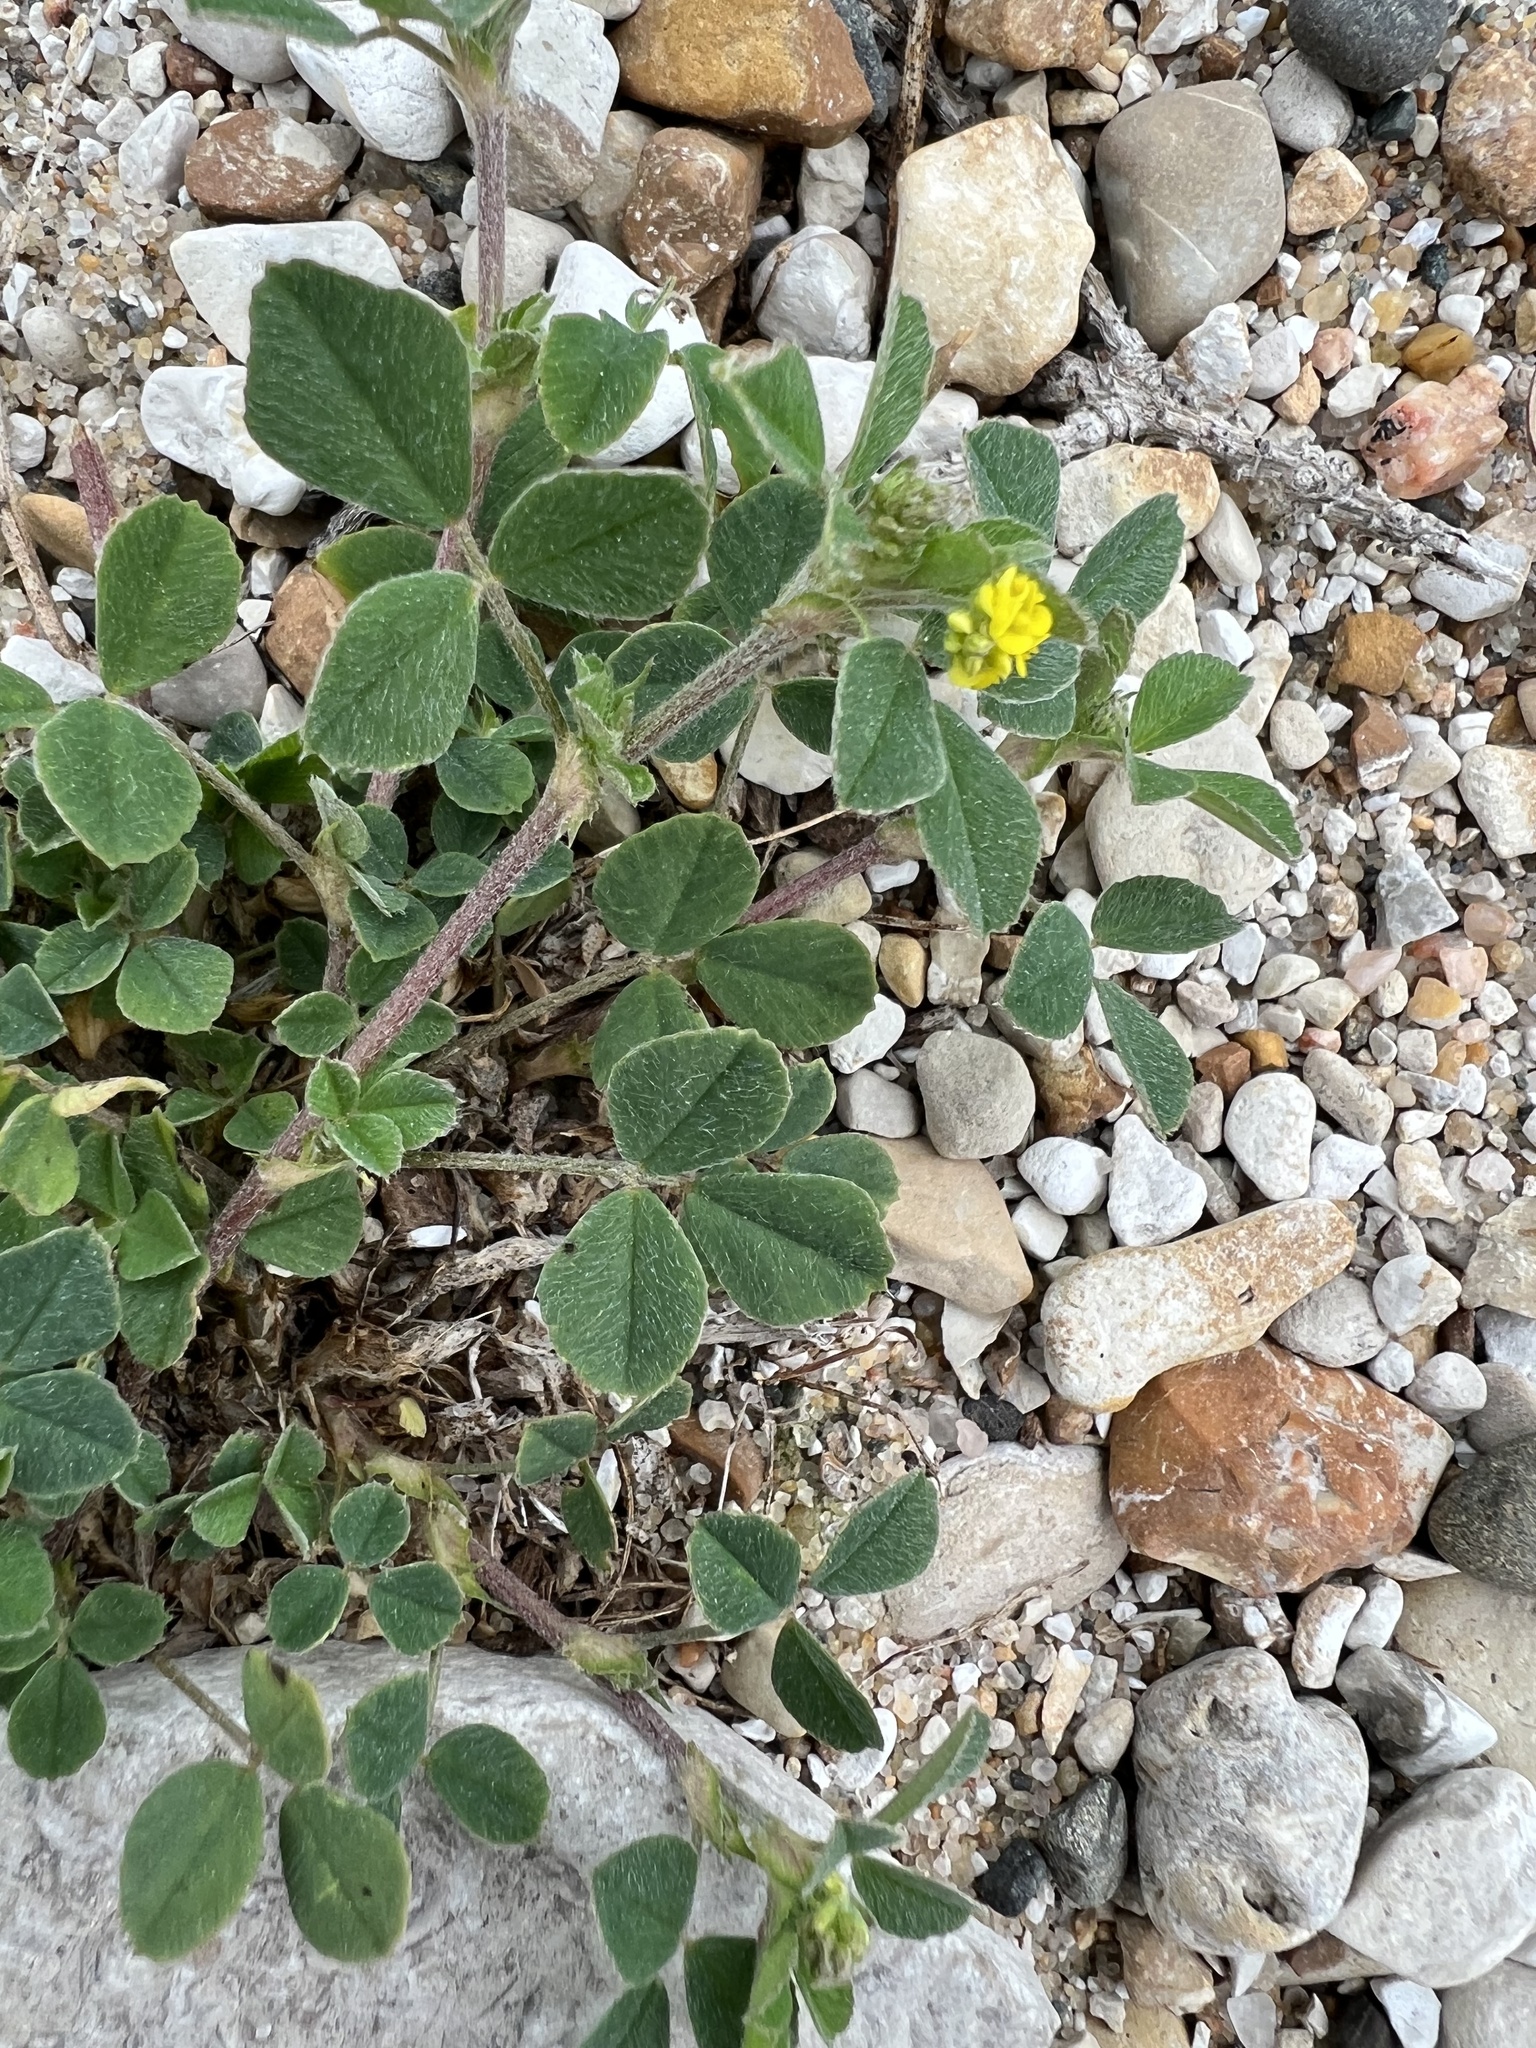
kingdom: Plantae
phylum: Tracheophyta
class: Magnoliopsida
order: Fabales
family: Fabaceae
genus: Medicago
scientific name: Medicago lupulina
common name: Black medick
